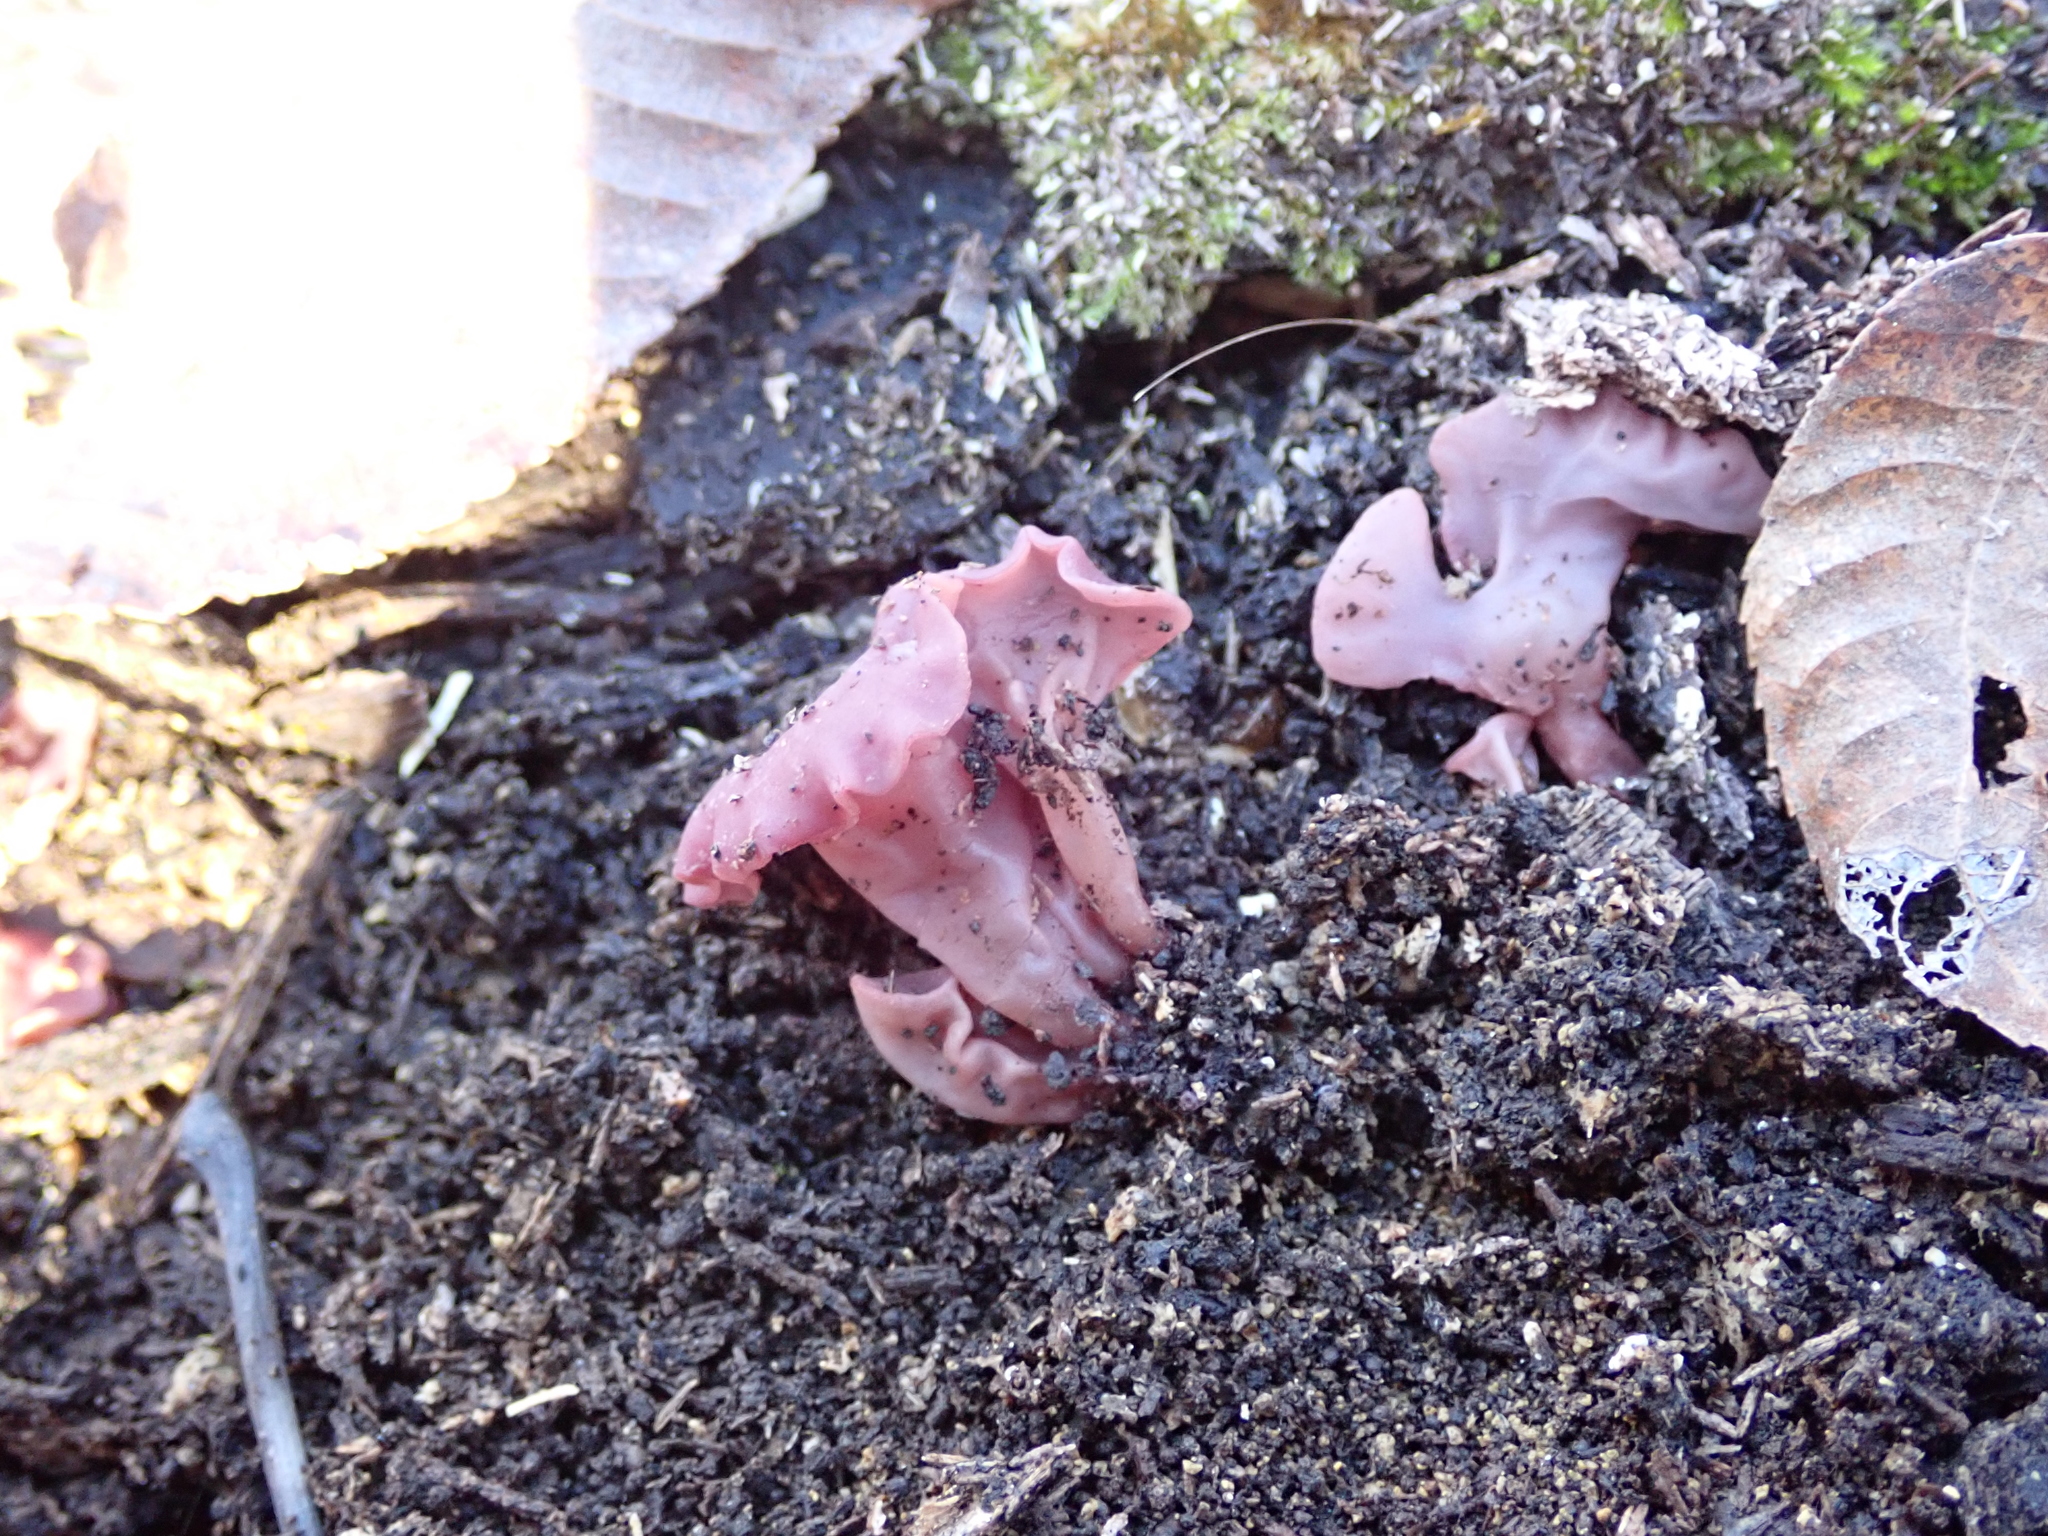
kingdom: Fungi
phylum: Ascomycota
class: Leotiomycetes
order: Helotiales
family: Gelatinodiscaceae
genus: Ascocoryne
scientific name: Ascocoryne sarcoides
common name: Purple jellydisc
